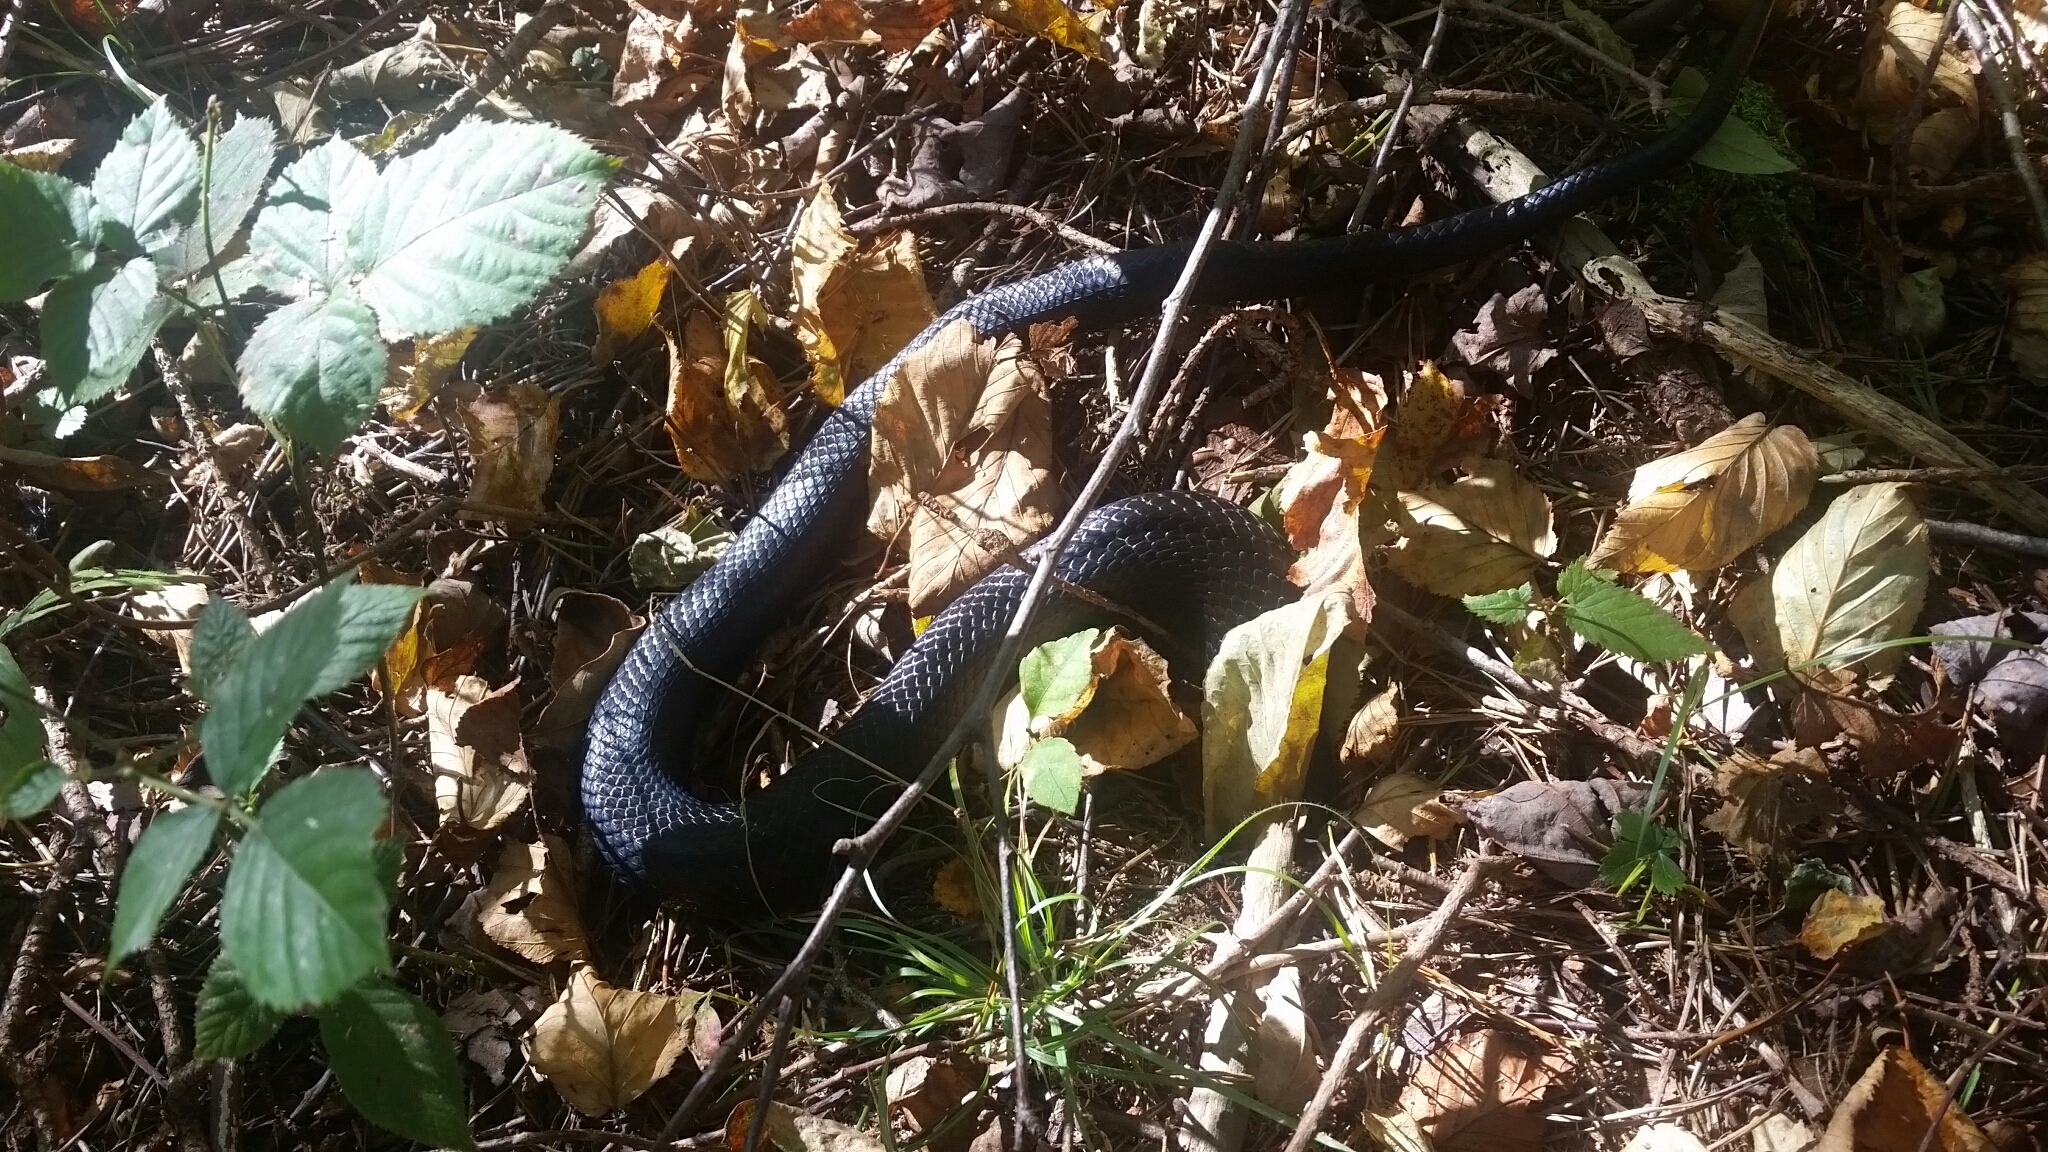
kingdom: Animalia
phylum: Chordata
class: Squamata
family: Colubridae
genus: Pantherophis
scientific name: Pantherophis alleghaniensis
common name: Eastern rat snake
